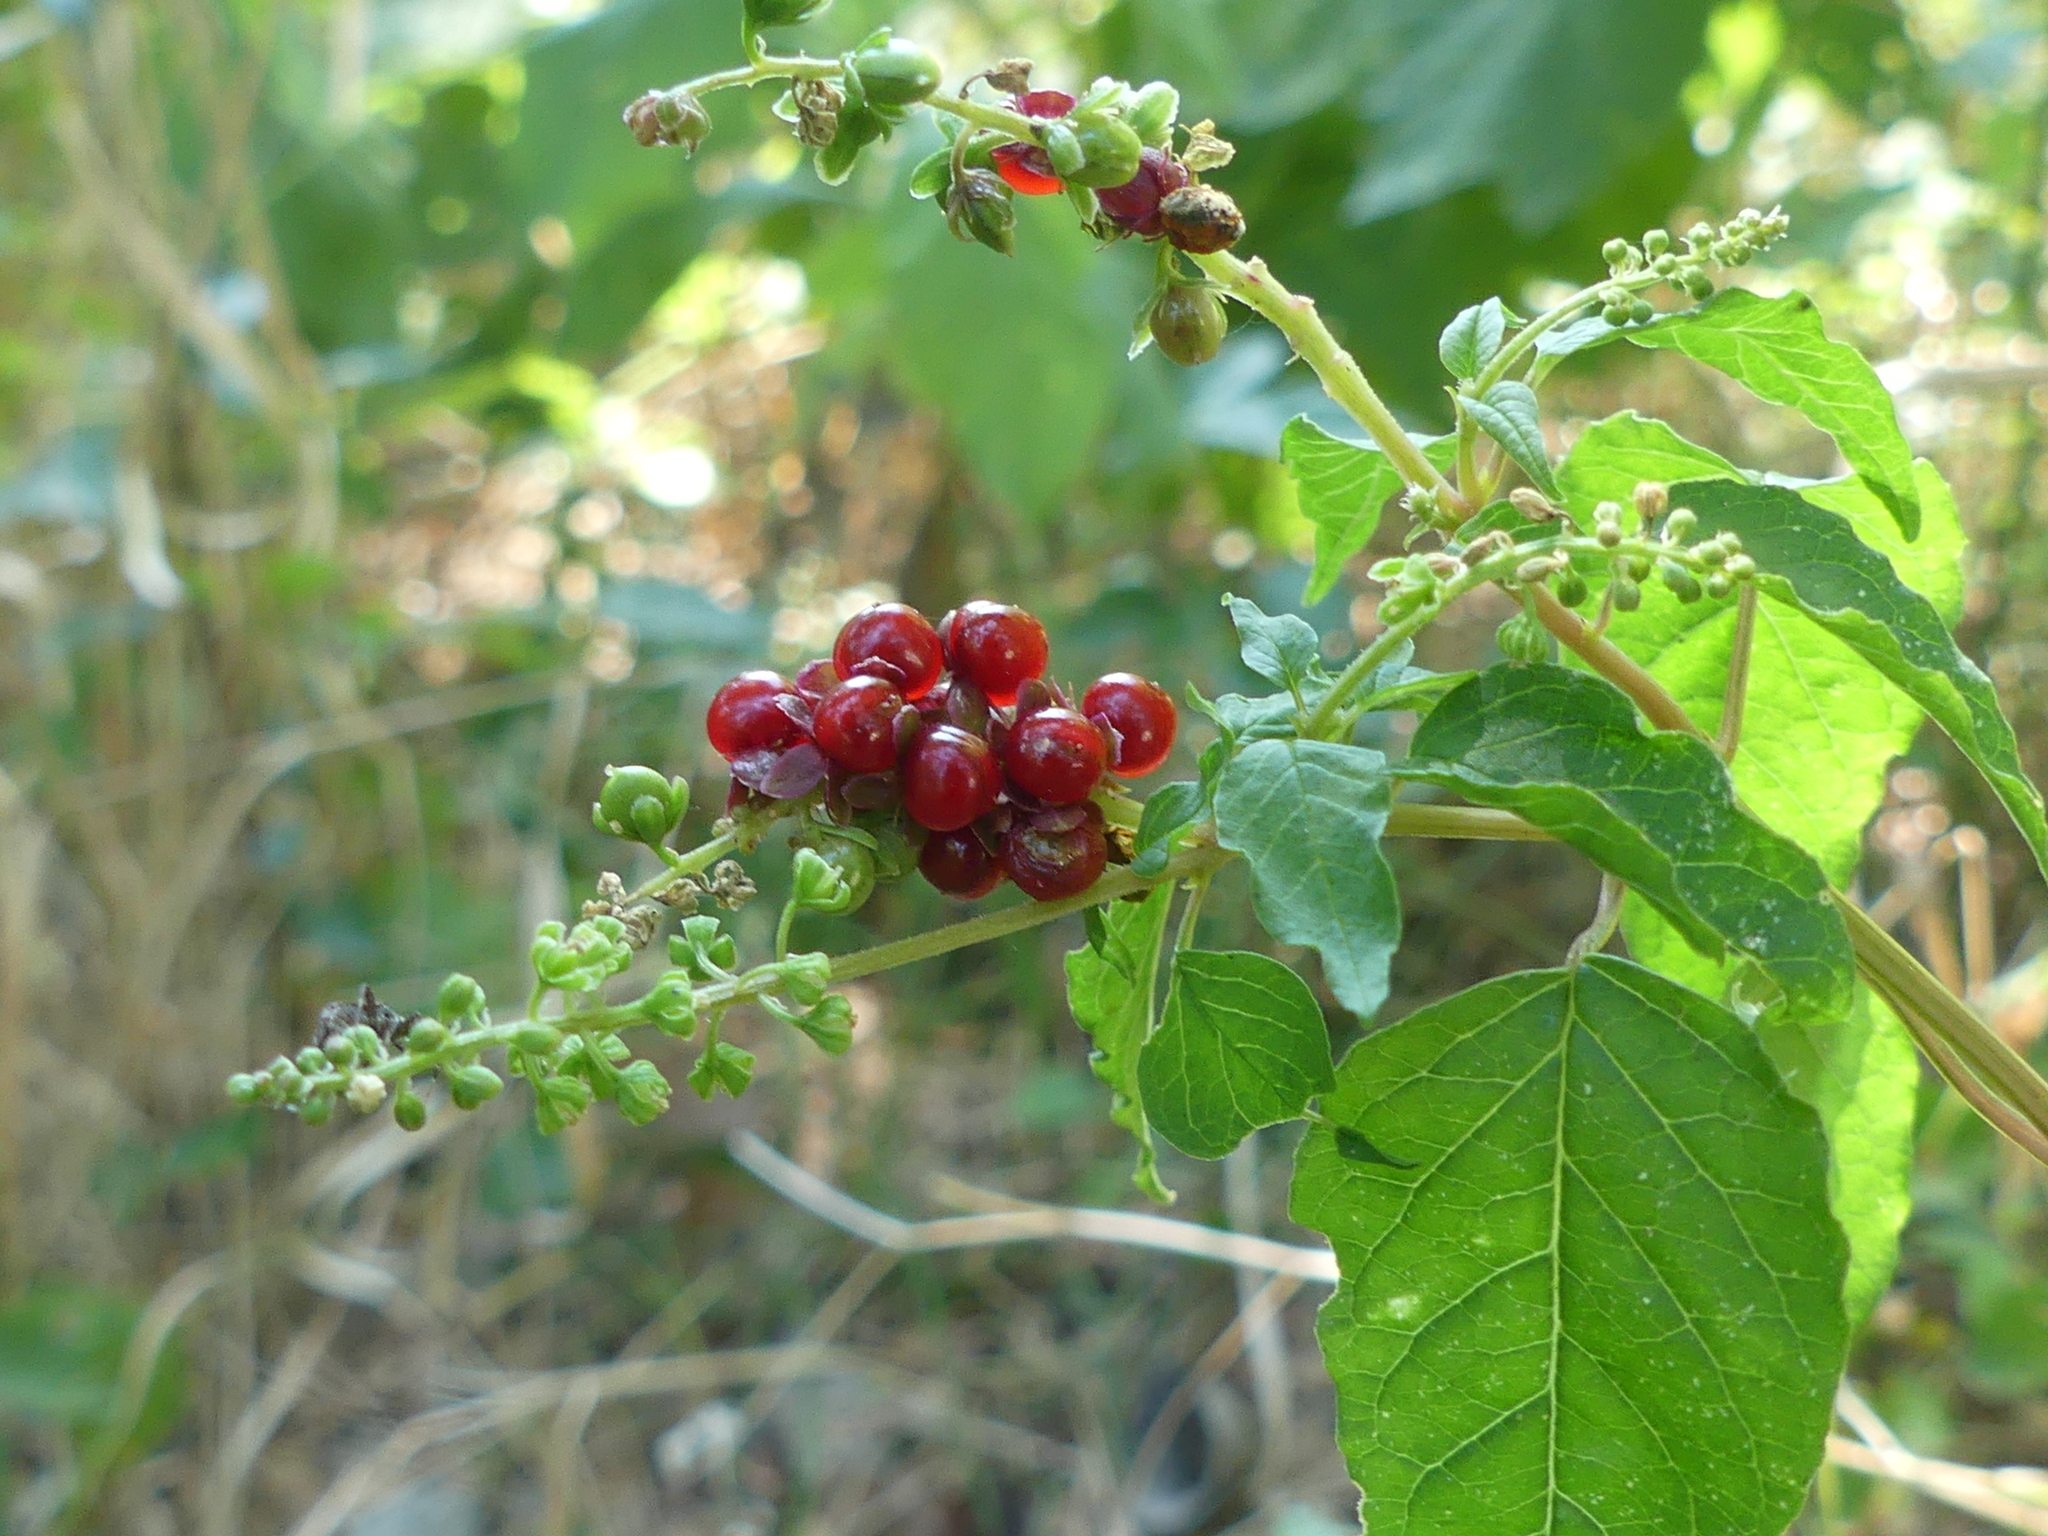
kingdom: Plantae
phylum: Tracheophyta
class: Magnoliopsida
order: Caryophyllales
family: Phytolaccaceae
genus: Rivina
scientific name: Rivina humilis
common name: Rougeplant
